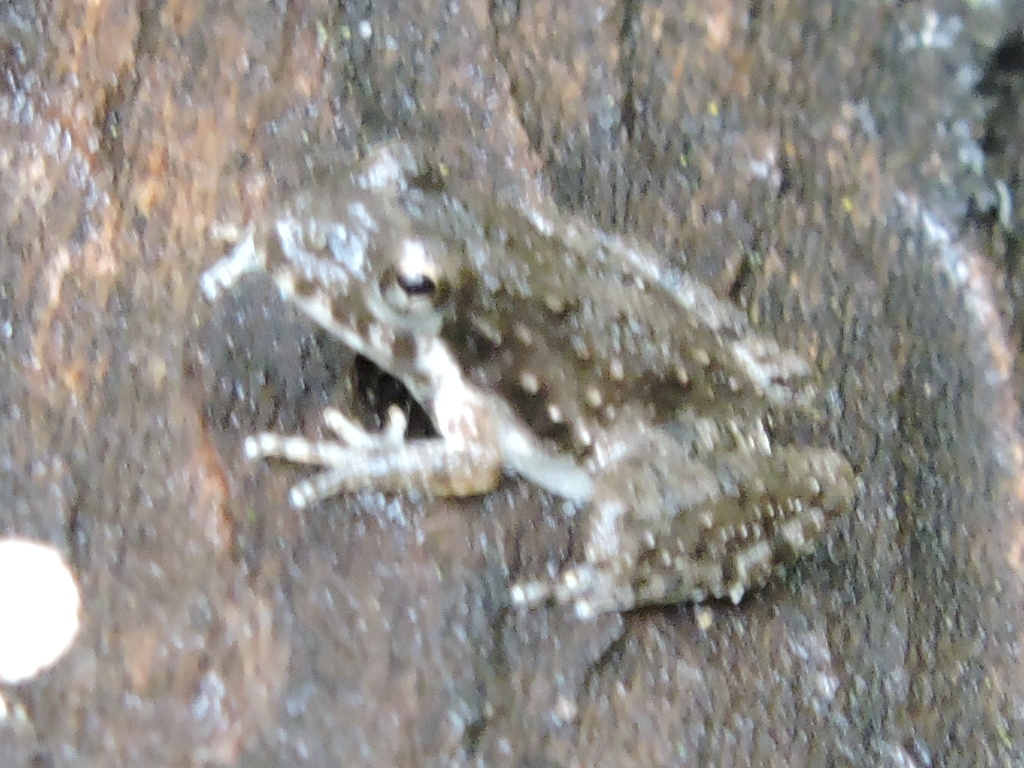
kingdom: Animalia
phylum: Chordata
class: Amphibia
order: Anura
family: Hylidae
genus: Acris
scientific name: Acris blanchardi
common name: Blanchard's cricket frog
